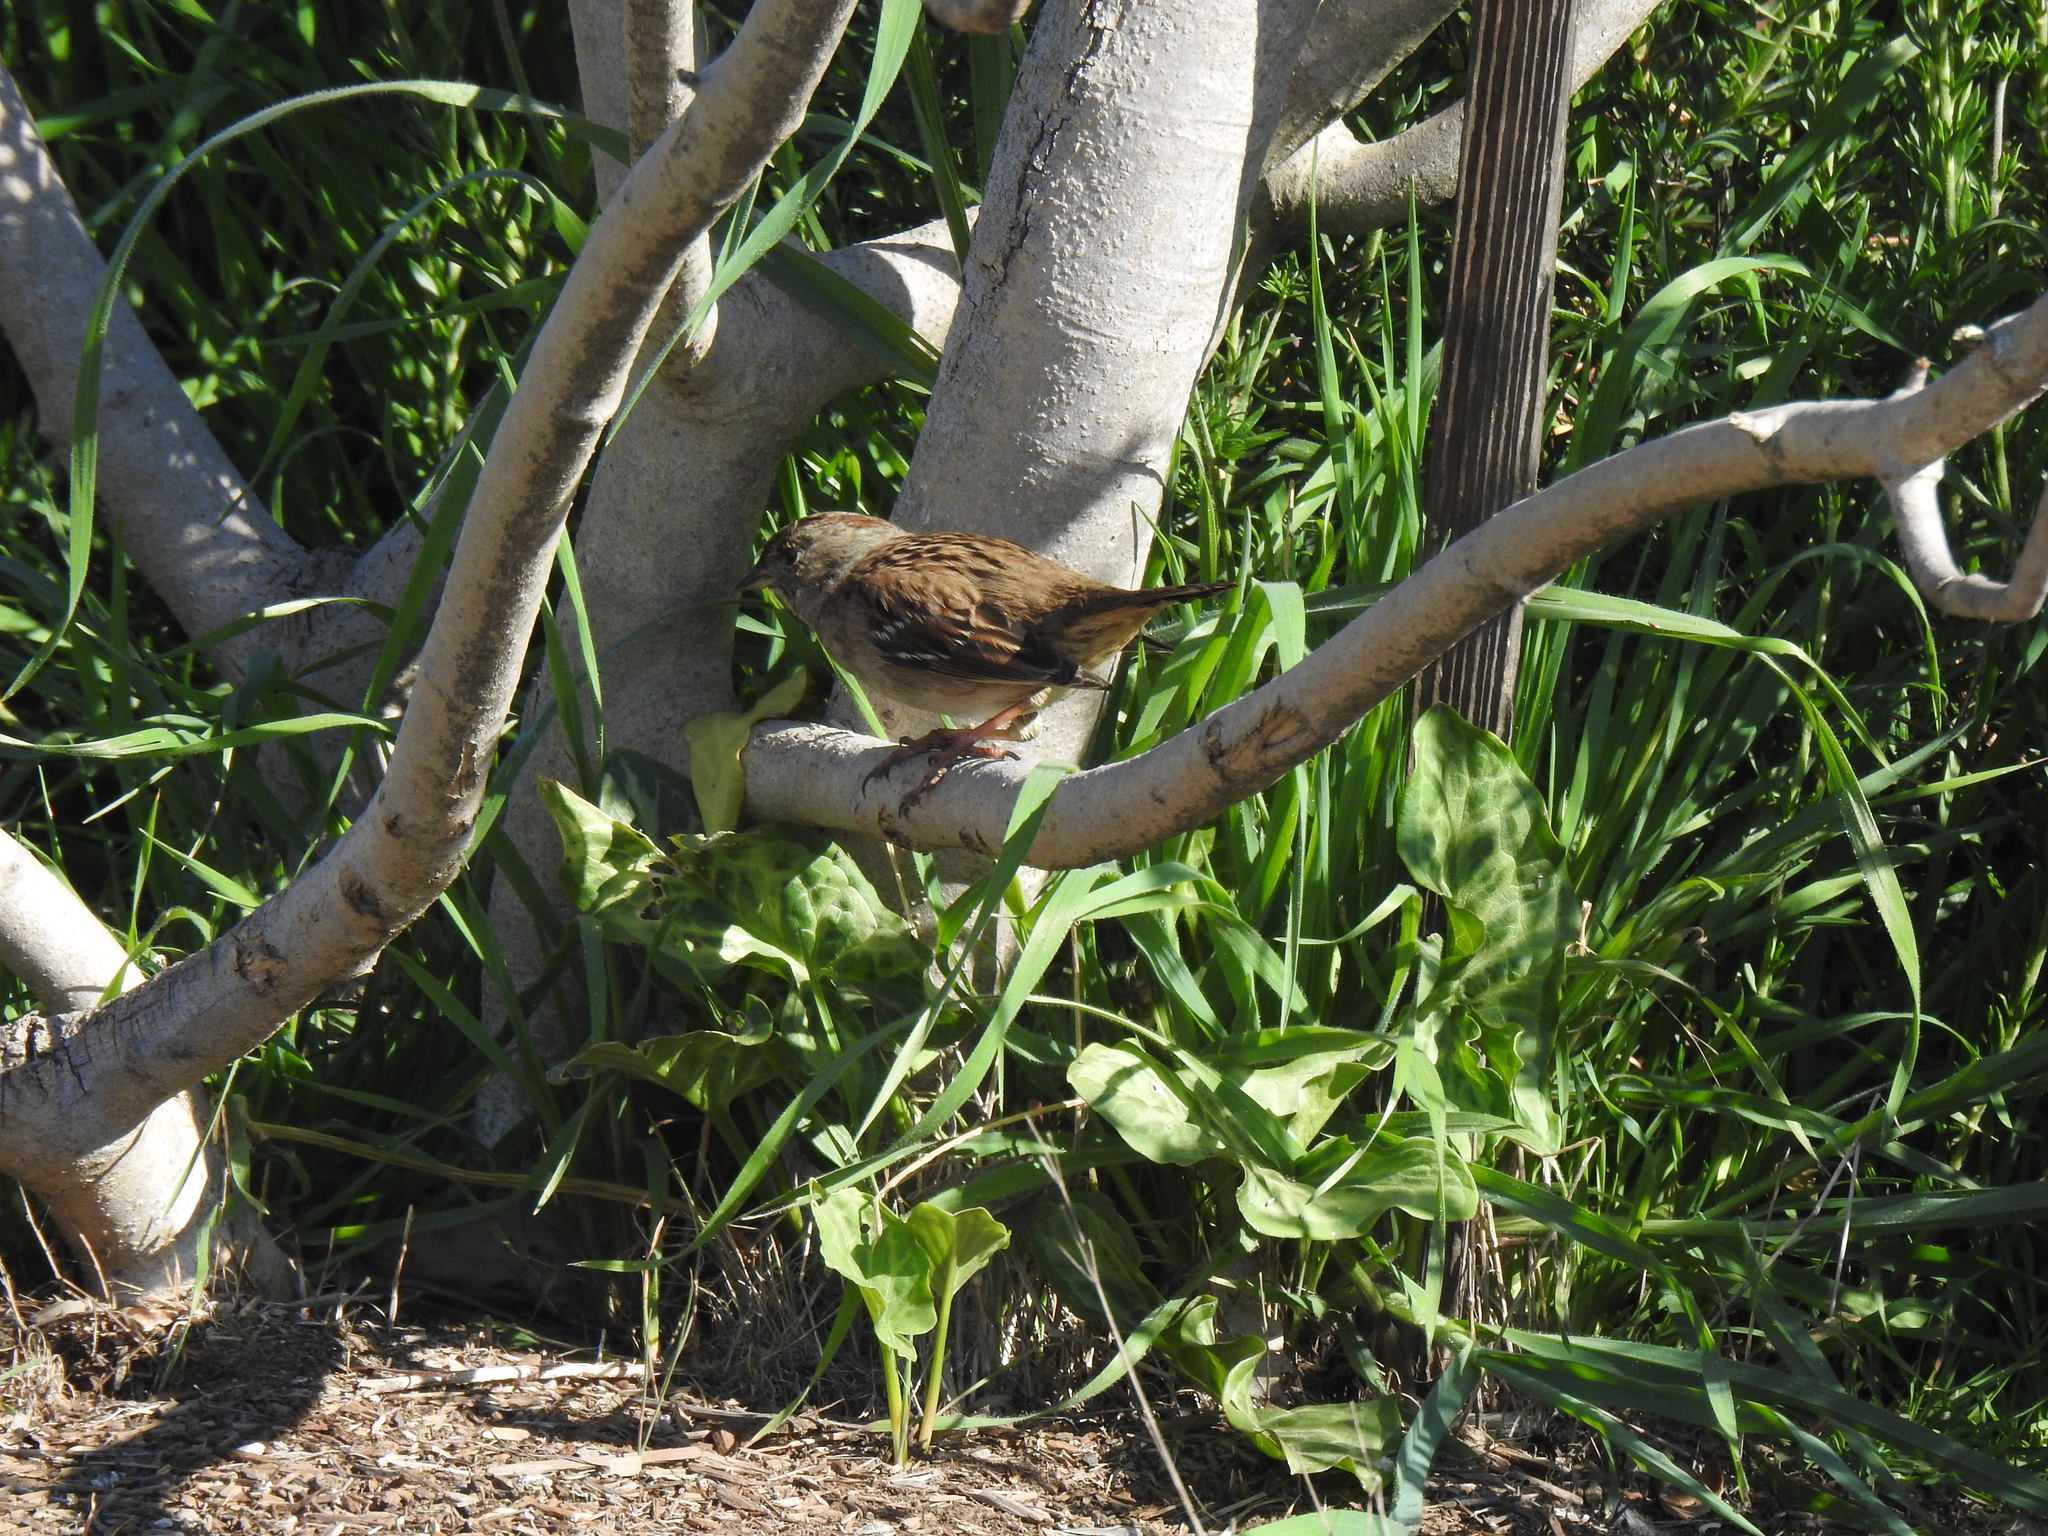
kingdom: Animalia
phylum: Chordata
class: Aves
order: Passeriformes
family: Passerellidae
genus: Zonotrichia
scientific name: Zonotrichia atricapilla
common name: Golden-crowned sparrow
